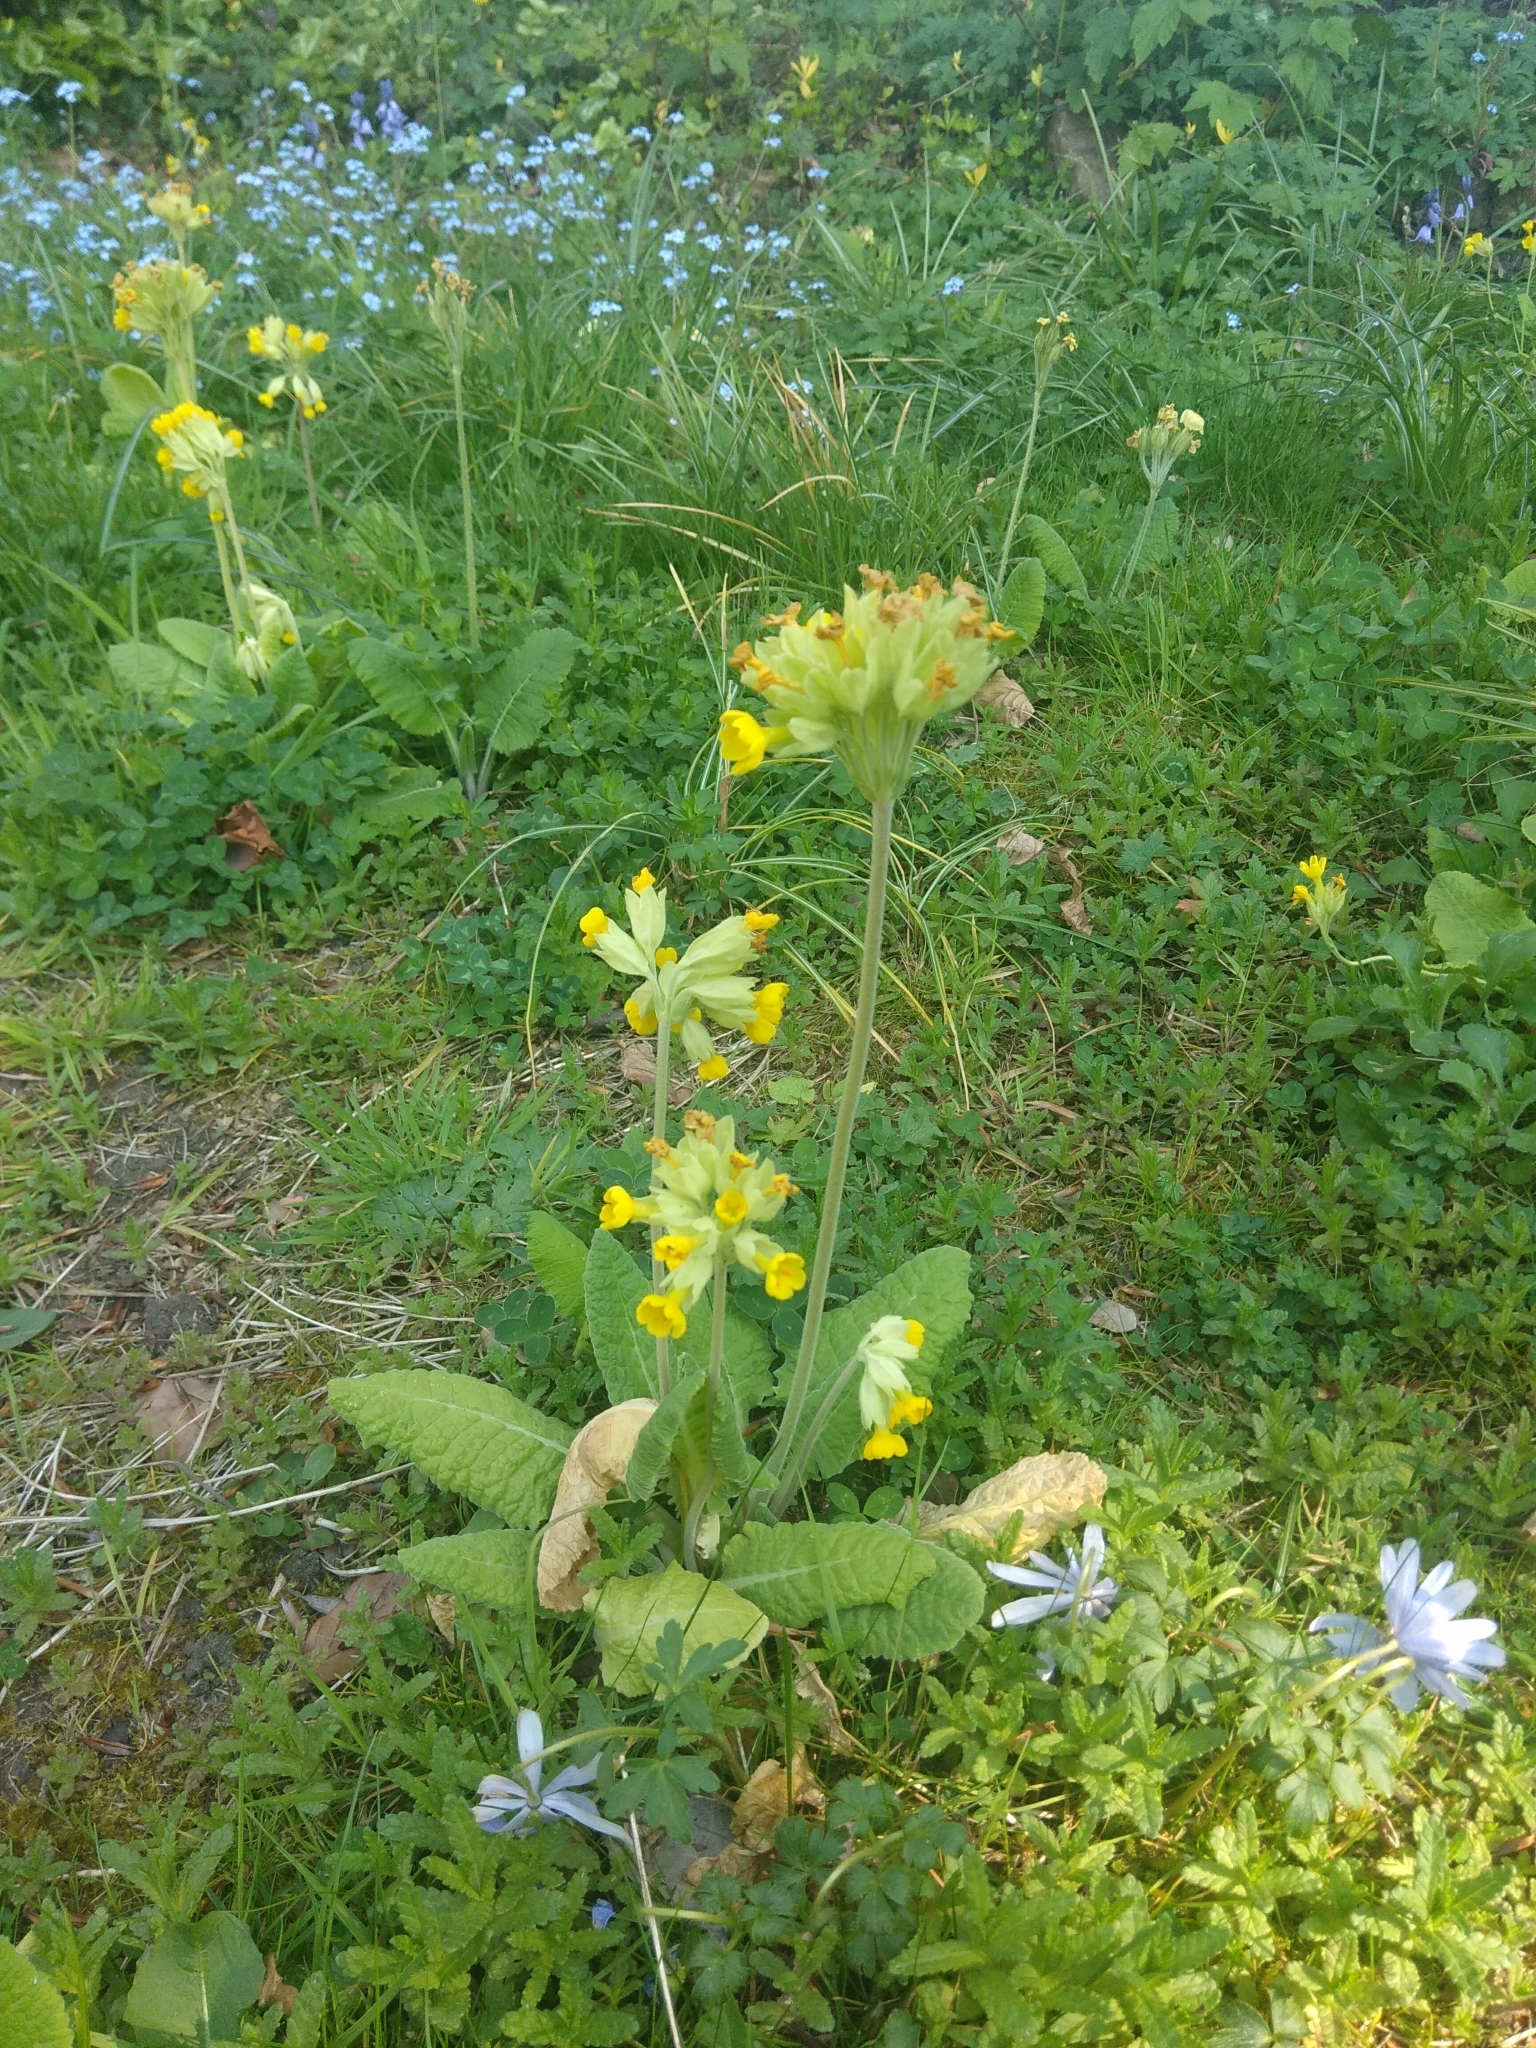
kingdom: Plantae
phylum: Tracheophyta
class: Magnoliopsida
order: Ericales
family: Primulaceae
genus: Primula
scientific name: Primula veris
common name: Cowslip
